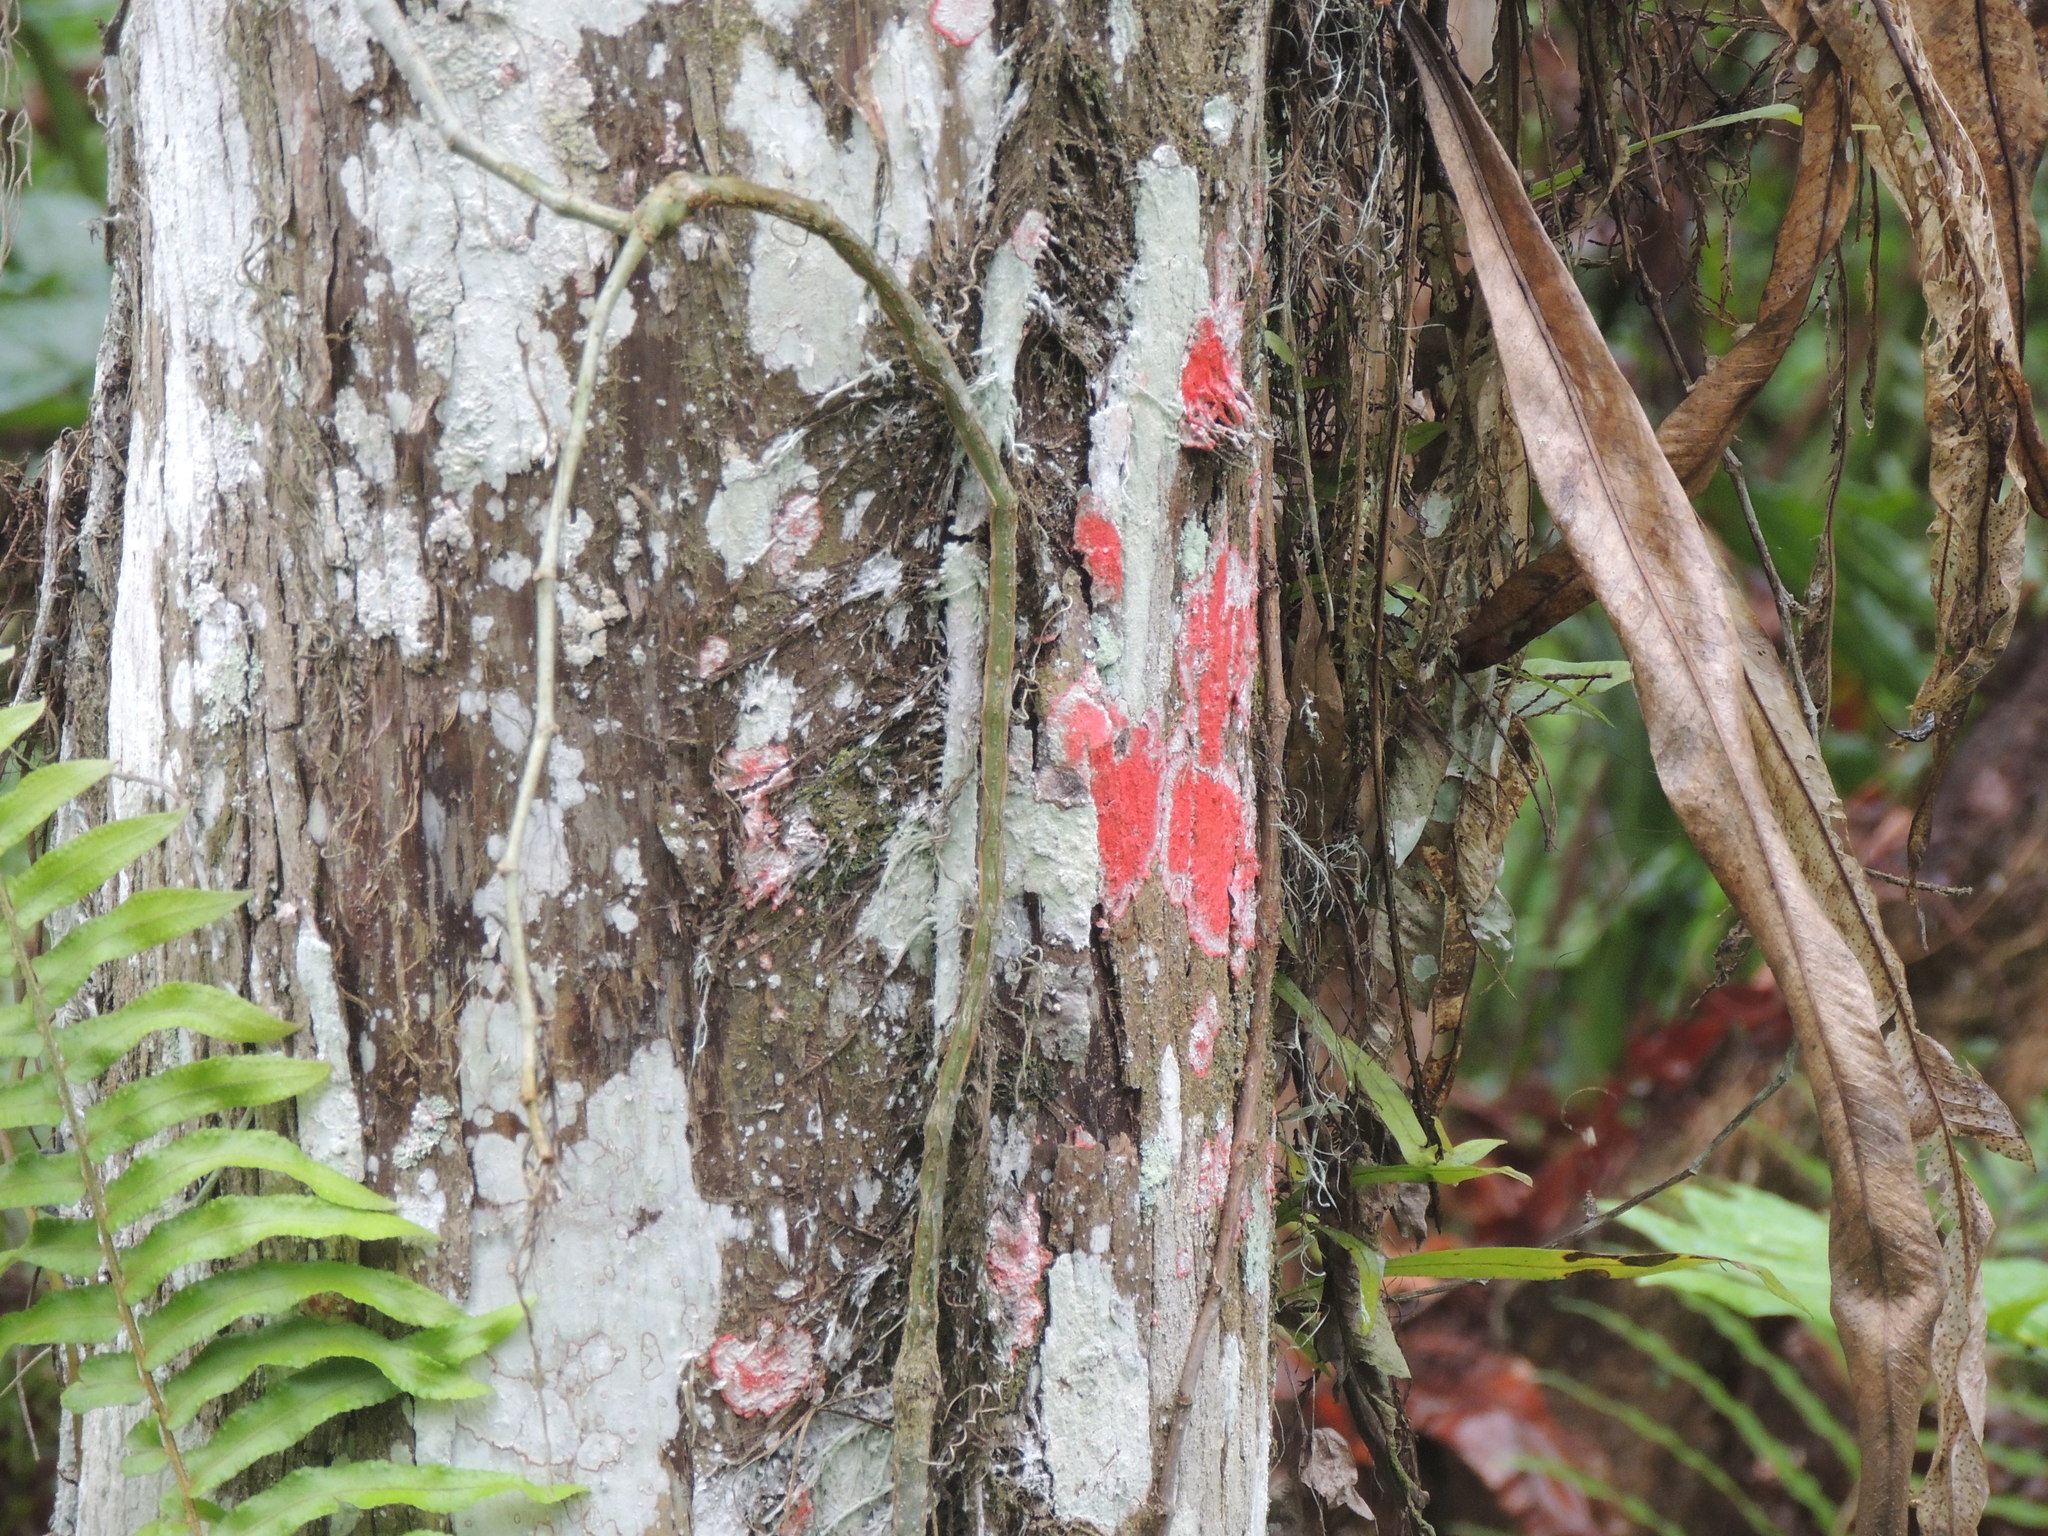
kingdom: Fungi
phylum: Ascomycota
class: Arthoniomycetes
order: Arthoniales
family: Arthoniaceae
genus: Herpothallon
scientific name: Herpothallon rubrocinctum
